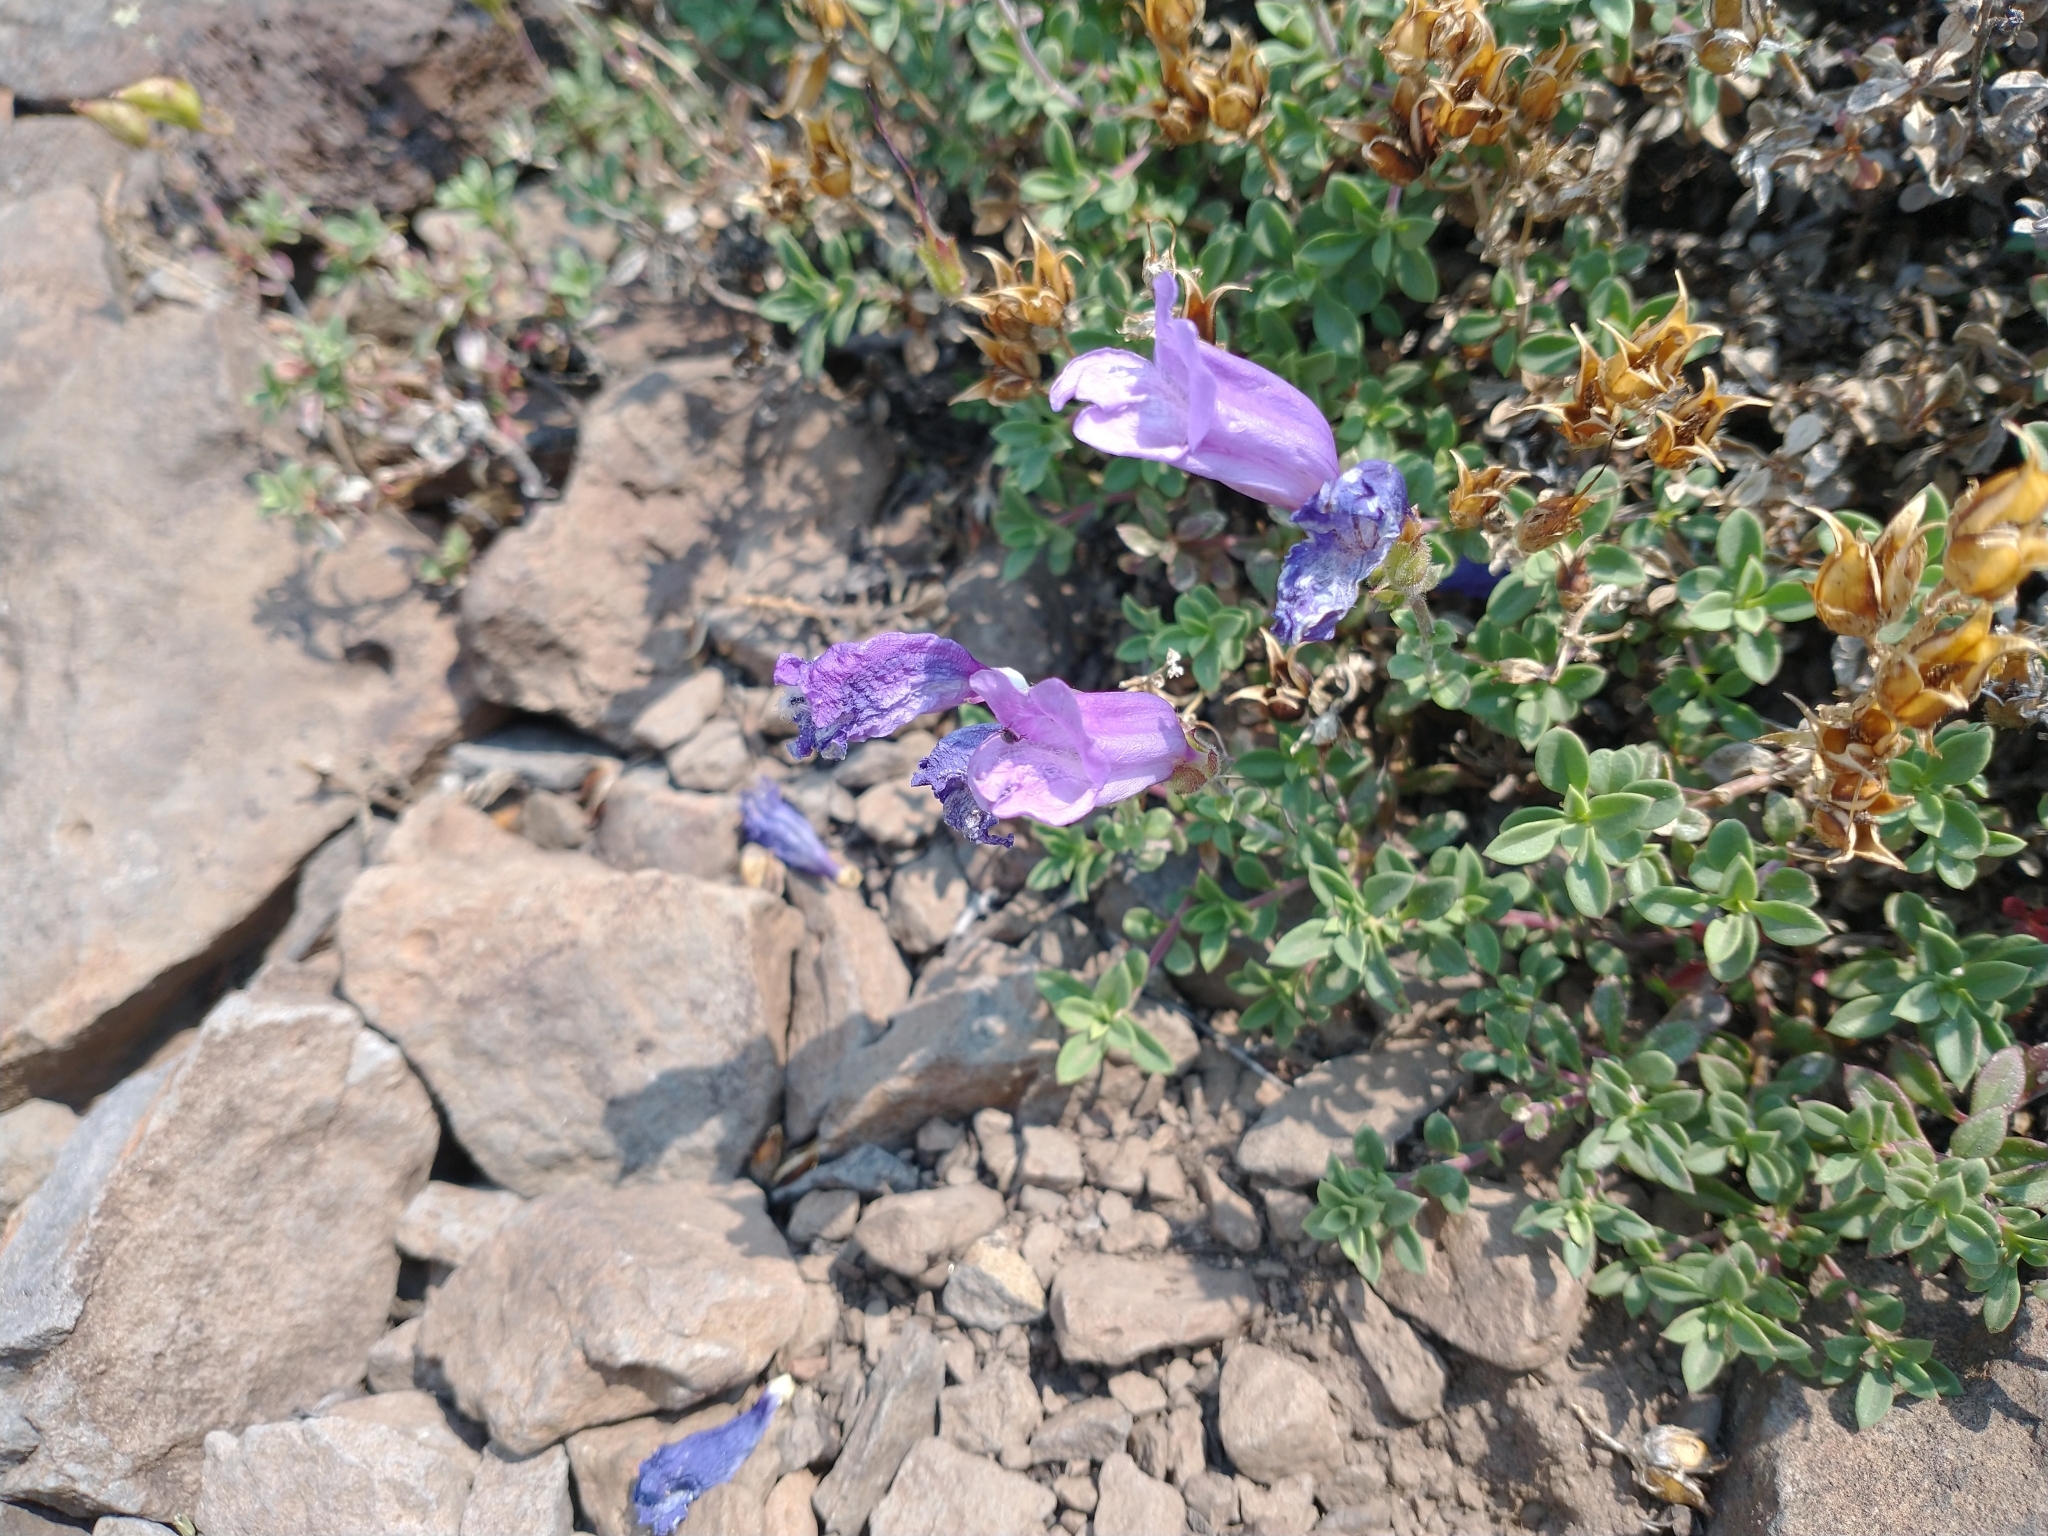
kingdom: Plantae
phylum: Tracheophyta
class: Magnoliopsida
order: Lamiales
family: Plantaginaceae
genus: Penstemon
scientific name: Penstemon davidsonii
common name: Davidson's penstemon
